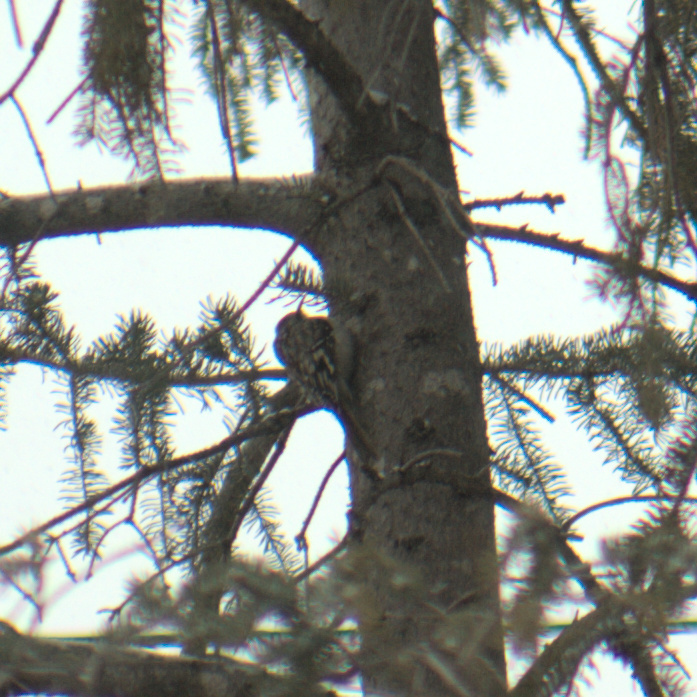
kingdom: Animalia
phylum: Chordata
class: Aves
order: Passeriformes
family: Certhiidae
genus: Certhia
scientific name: Certhia americana
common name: Brown creeper
